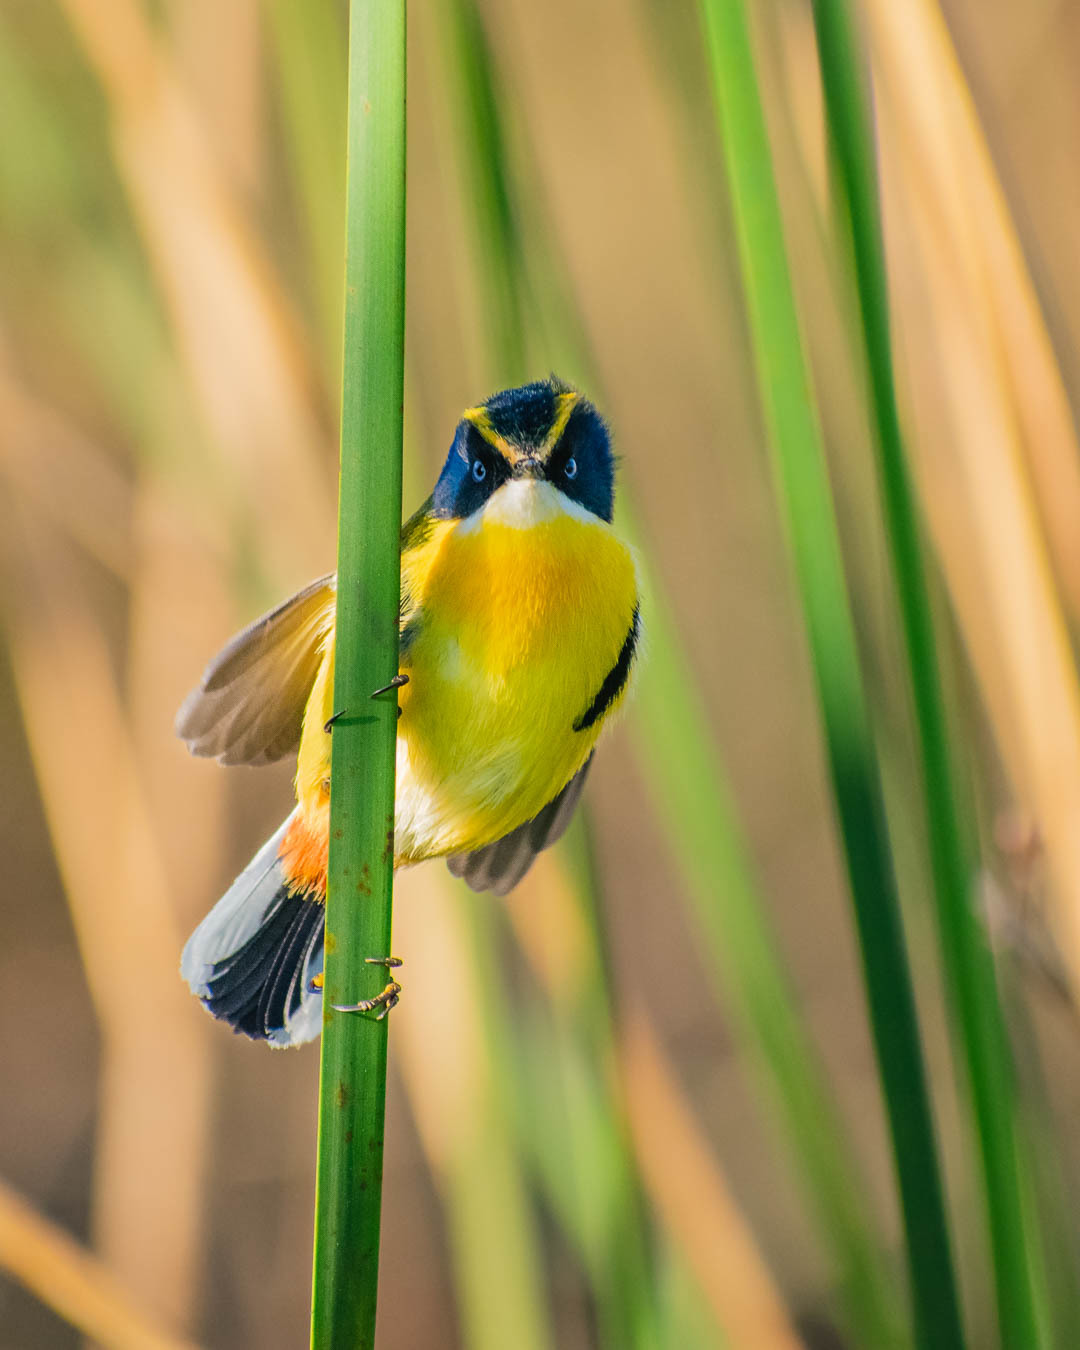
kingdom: Animalia
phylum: Chordata
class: Aves
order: Passeriformes
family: Tyrannidae
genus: Tachuris
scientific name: Tachuris rubrigastra
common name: Many-colored rush tyrant
